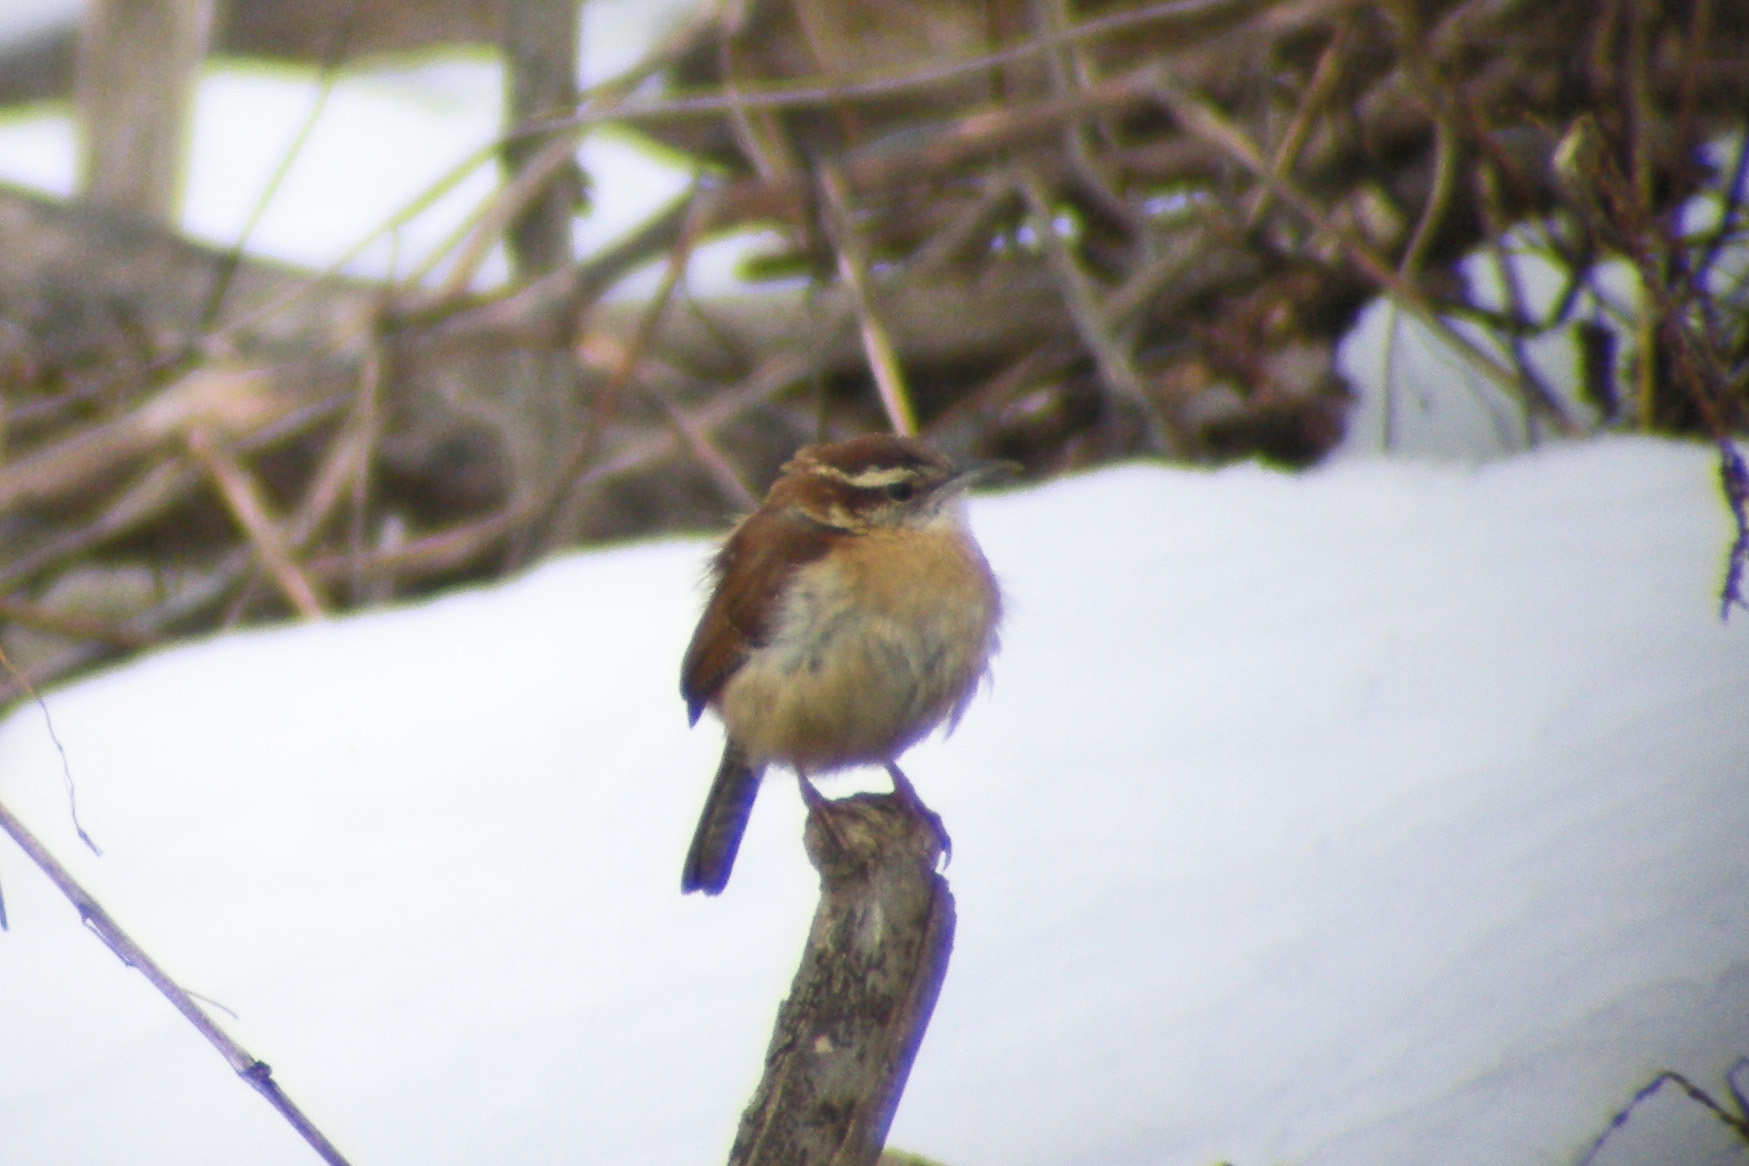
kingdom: Animalia
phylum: Chordata
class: Aves
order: Passeriformes
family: Troglodytidae
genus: Thryothorus
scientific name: Thryothorus ludovicianus
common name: Carolina wren
